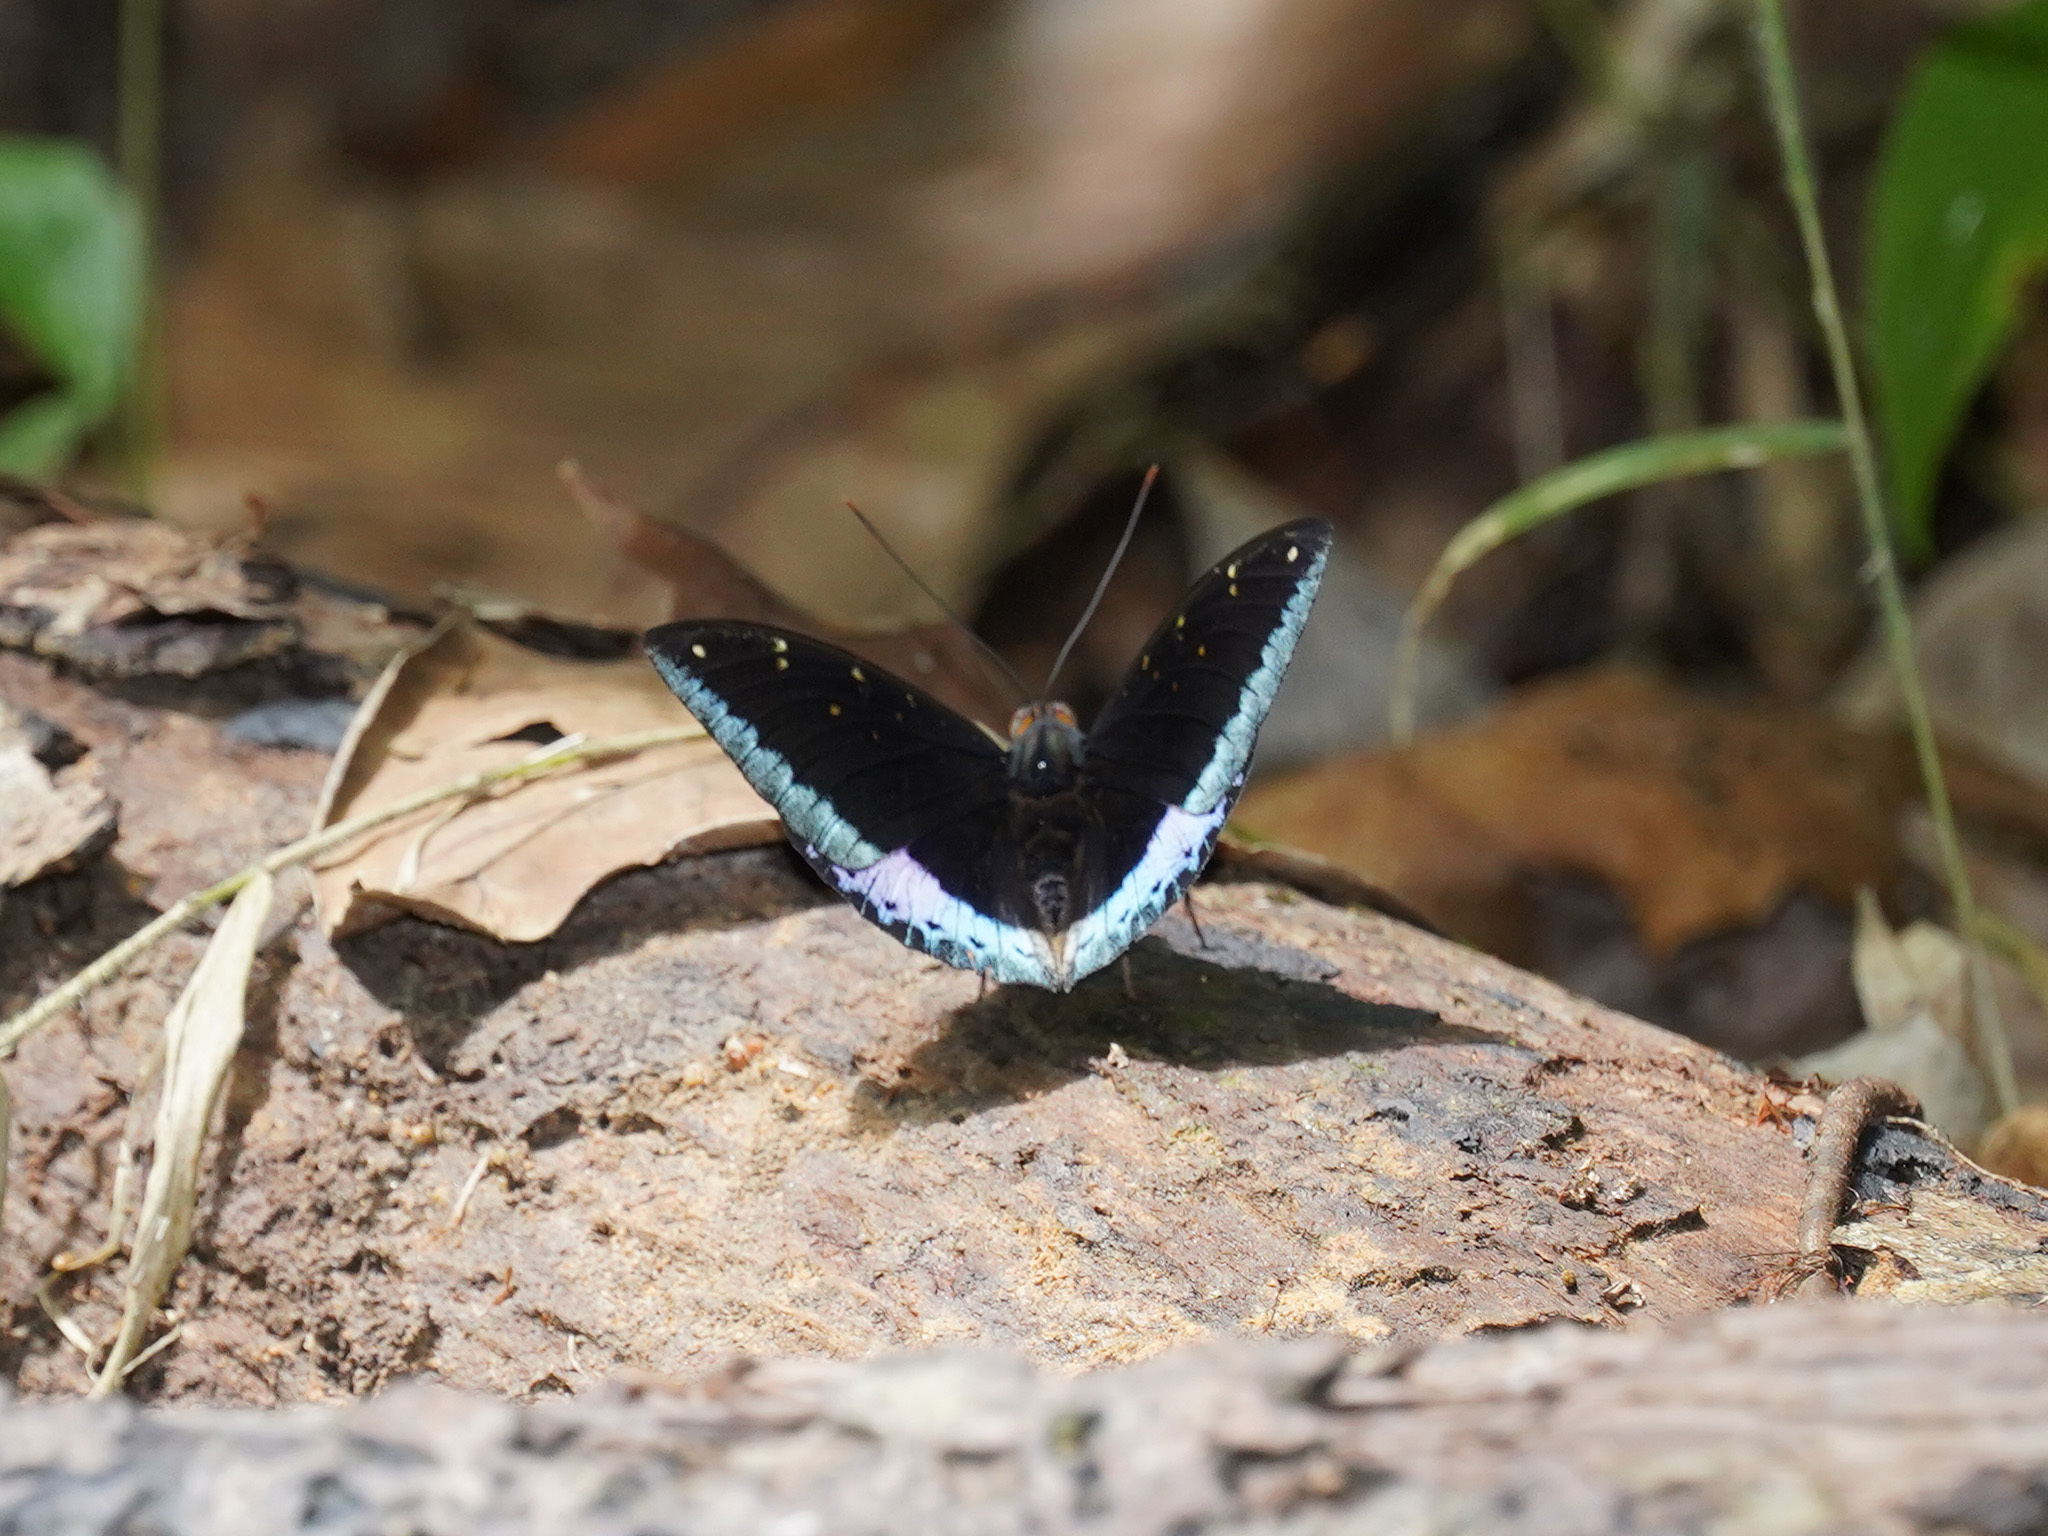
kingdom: Animalia
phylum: Arthropoda
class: Insecta
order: Lepidoptera
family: Nymphalidae
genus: Lexias
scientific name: Lexias pardalis
